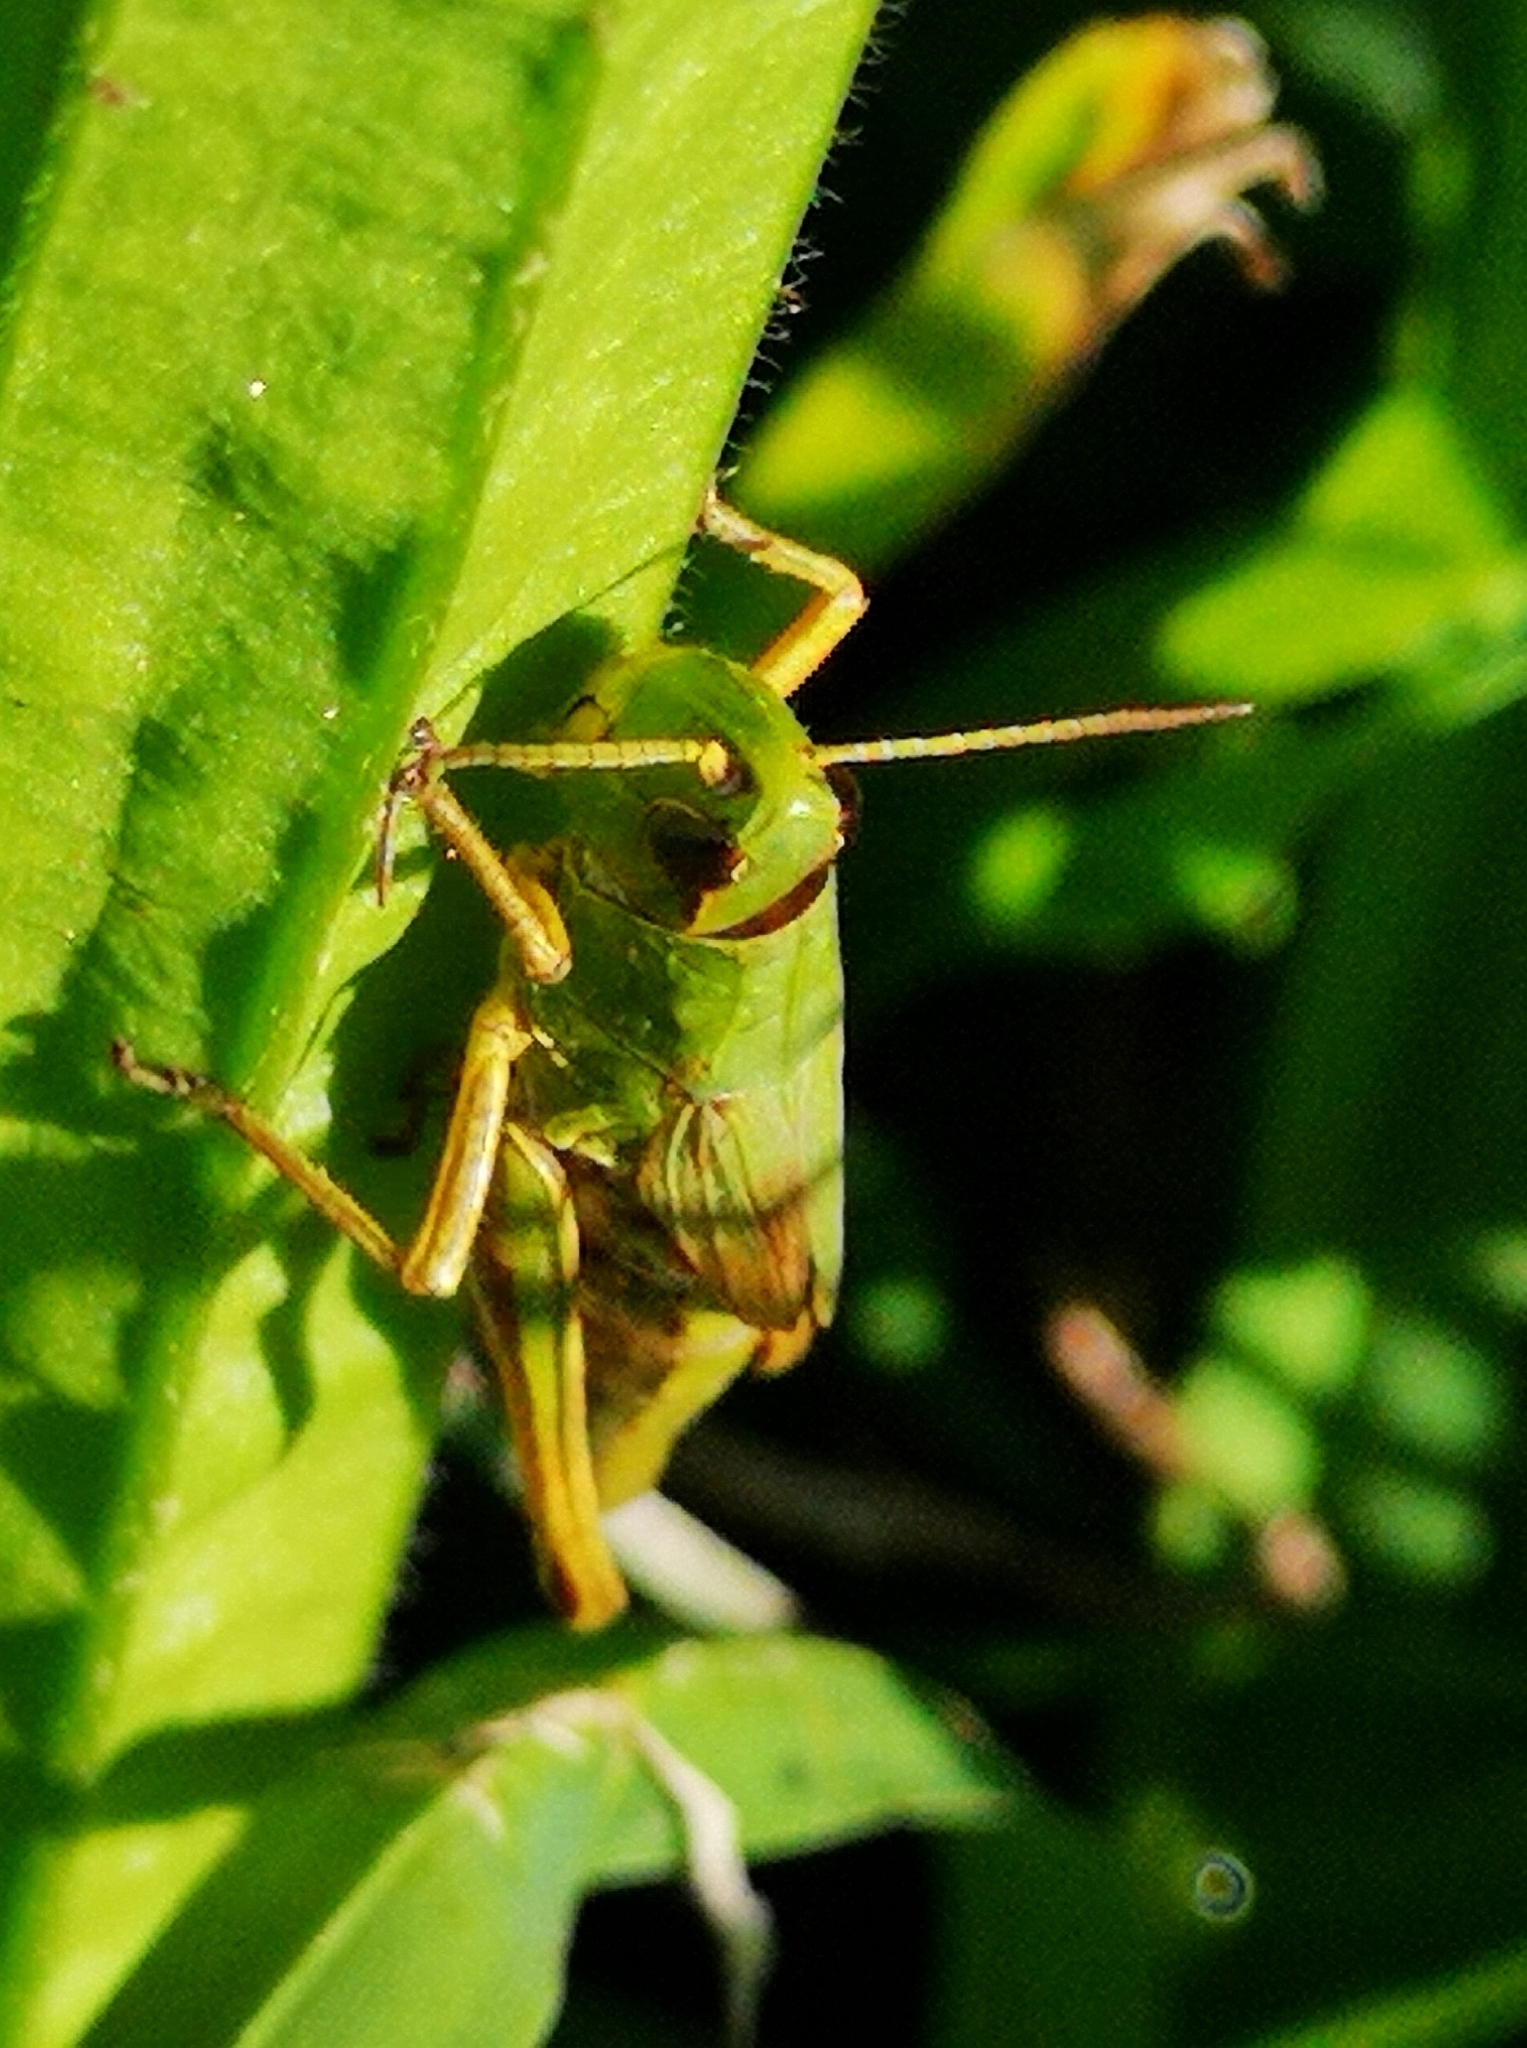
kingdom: Animalia
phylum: Arthropoda
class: Insecta
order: Orthoptera
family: Acrididae
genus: Pseudochorthippus
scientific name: Pseudochorthippus parallelus
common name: Meadow grasshopper
